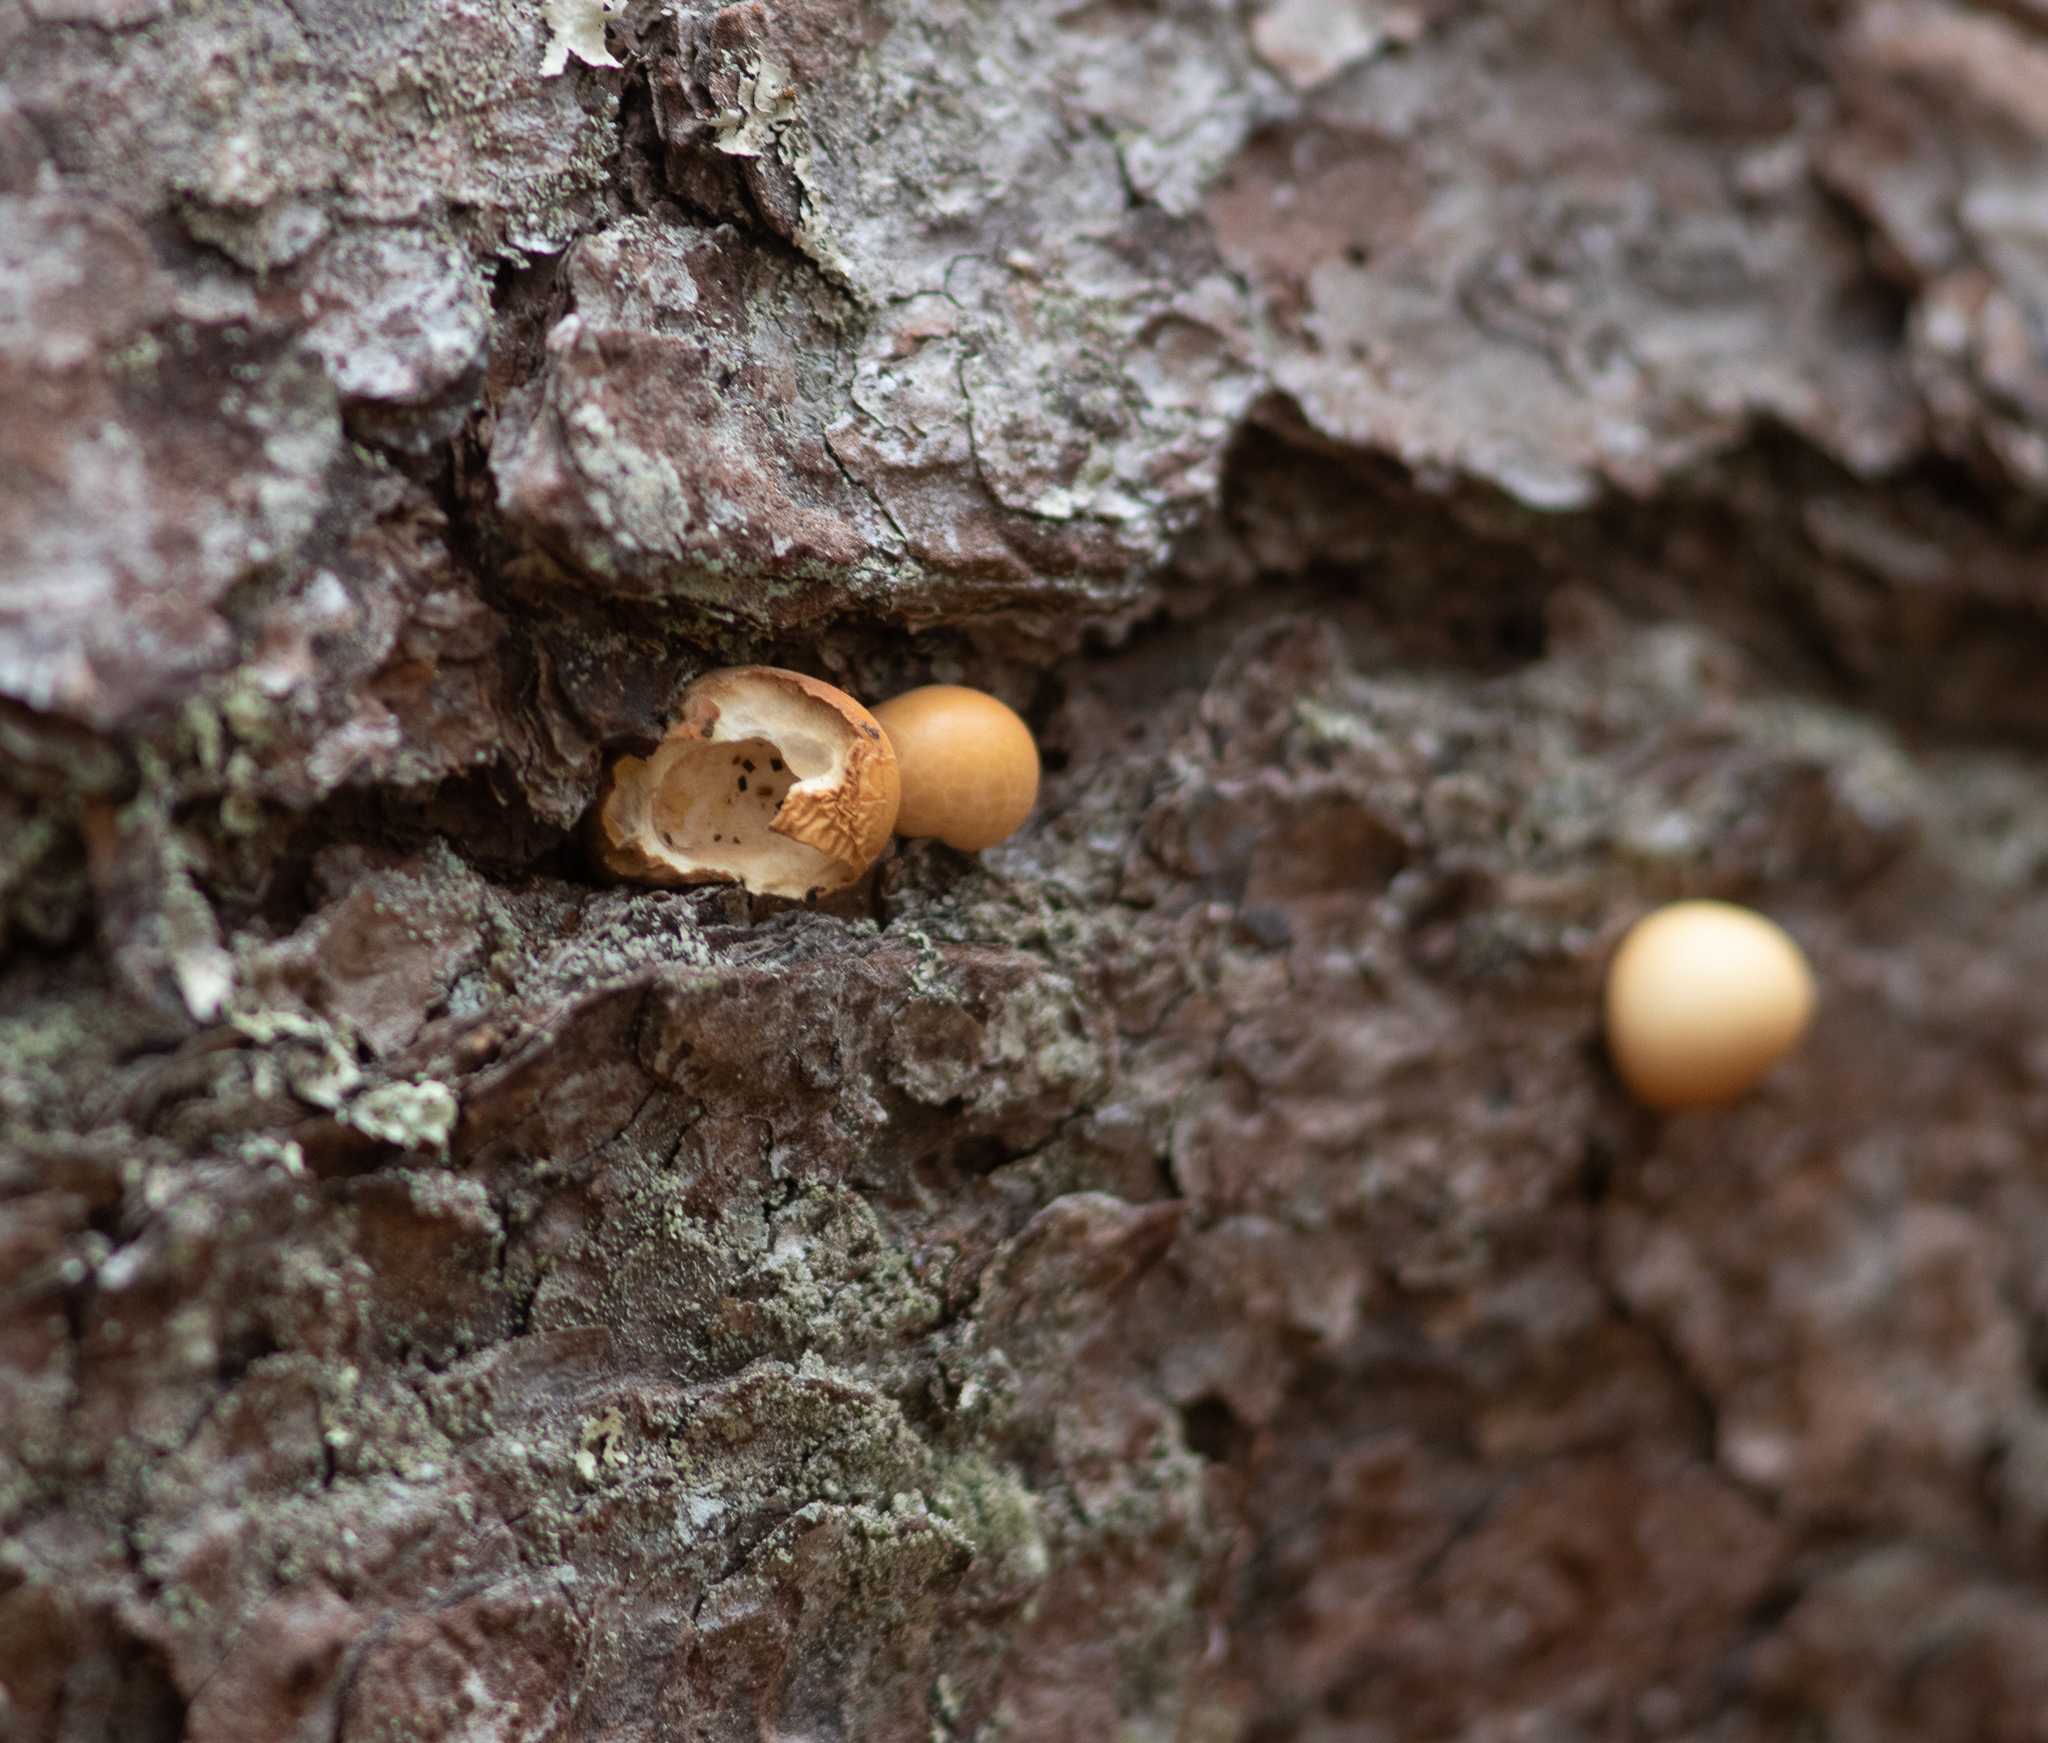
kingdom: Fungi
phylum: Basidiomycota
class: Agaricomycetes
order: Polyporales
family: Polyporaceae
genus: Cryptoporus
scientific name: Cryptoporus volvatus
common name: Veiled polypore
